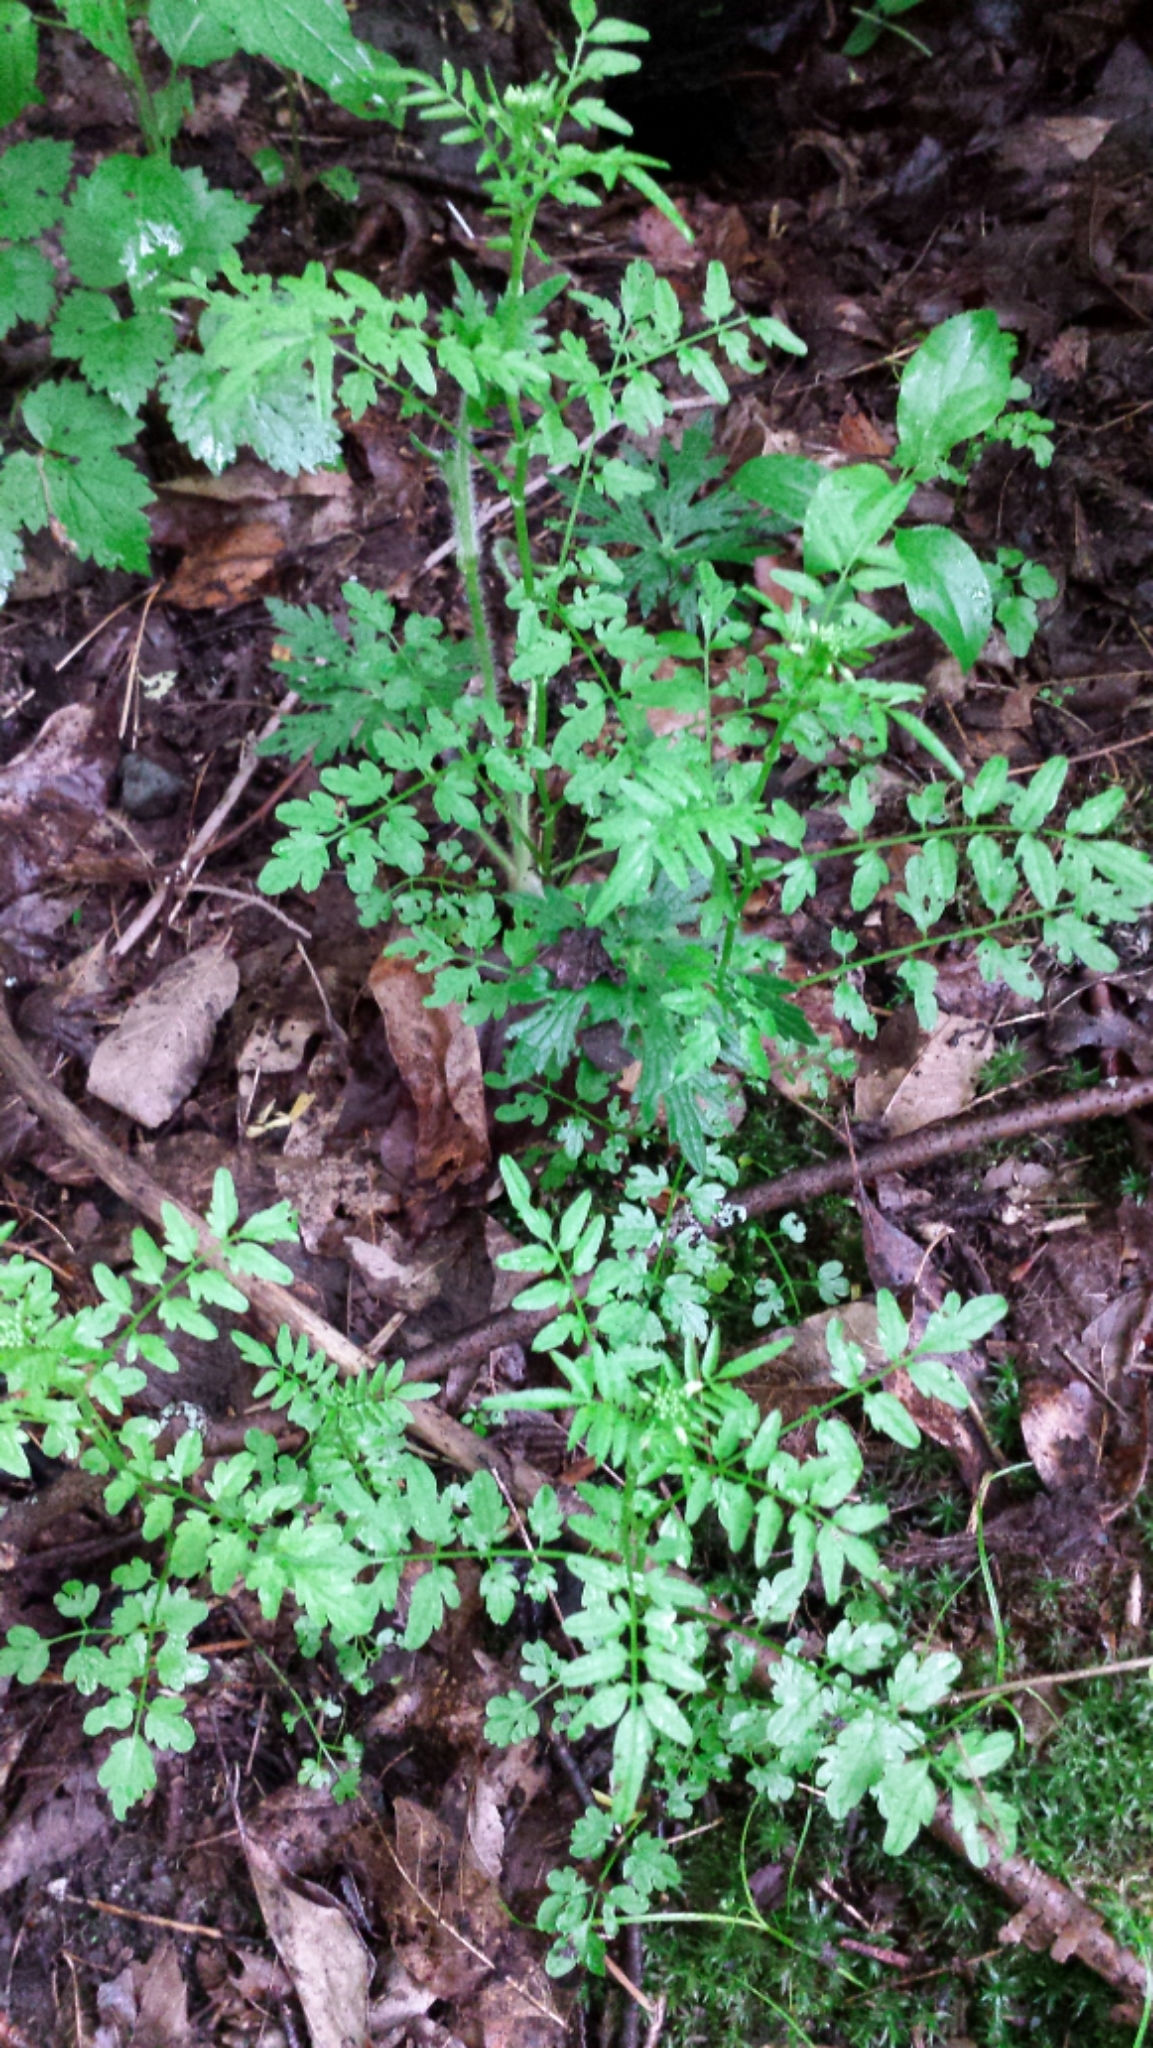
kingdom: Plantae
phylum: Tracheophyta
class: Magnoliopsida
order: Brassicales
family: Brassicaceae
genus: Cardamine
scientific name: Cardamine impatiens
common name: Narrow-leaved bitter-cress
